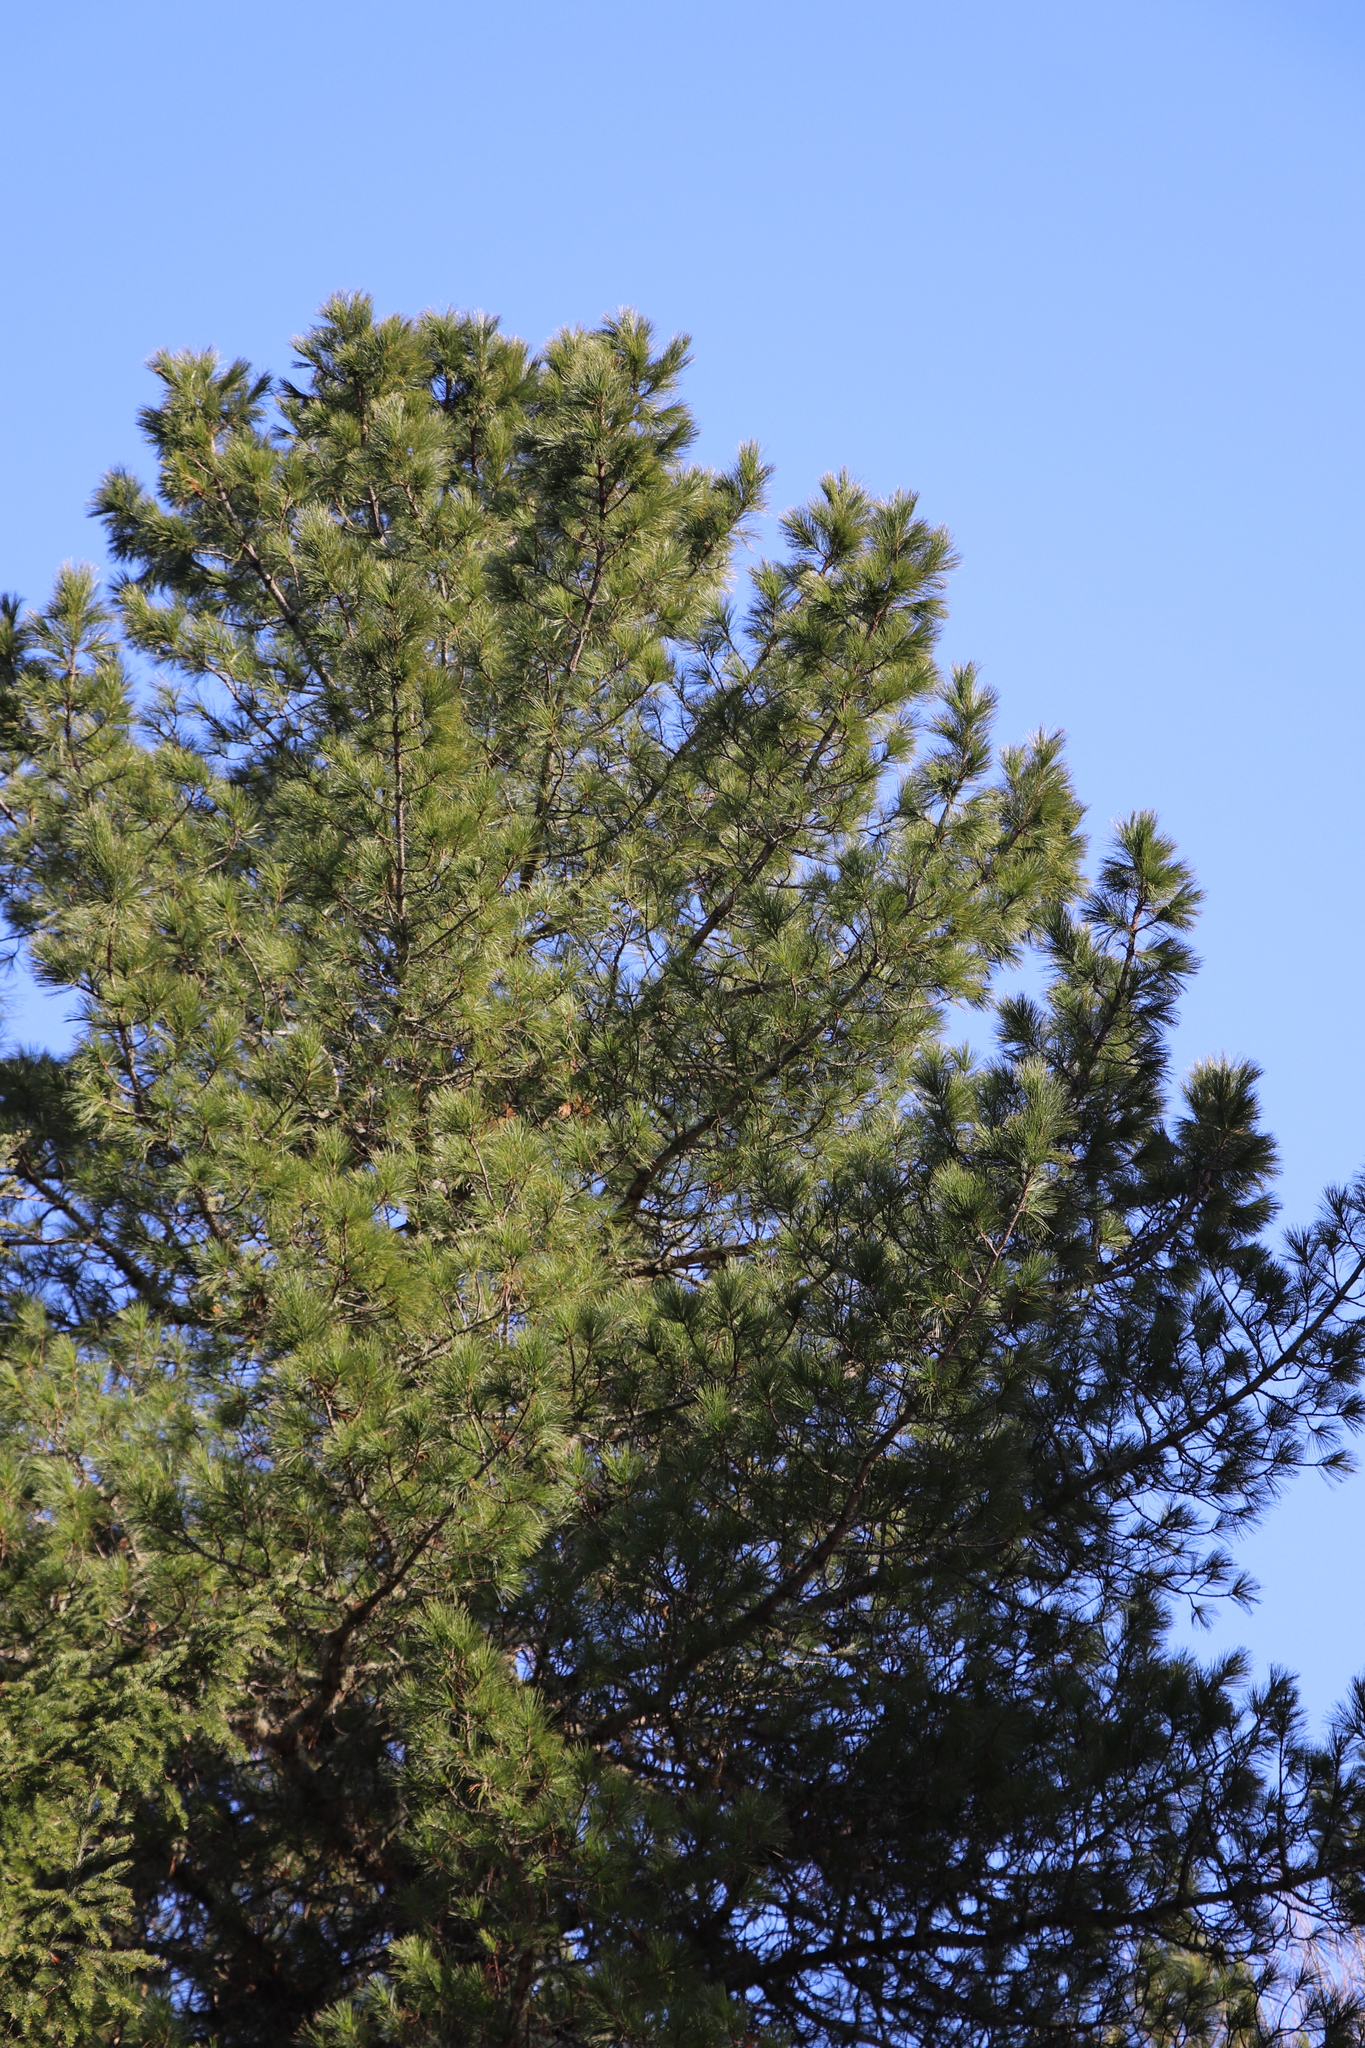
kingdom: Plantae
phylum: Tracheophyta
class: Pinopsida
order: Pinales
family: Pinaceae
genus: Pinus
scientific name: Pinus sibirica
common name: Siberian pine
